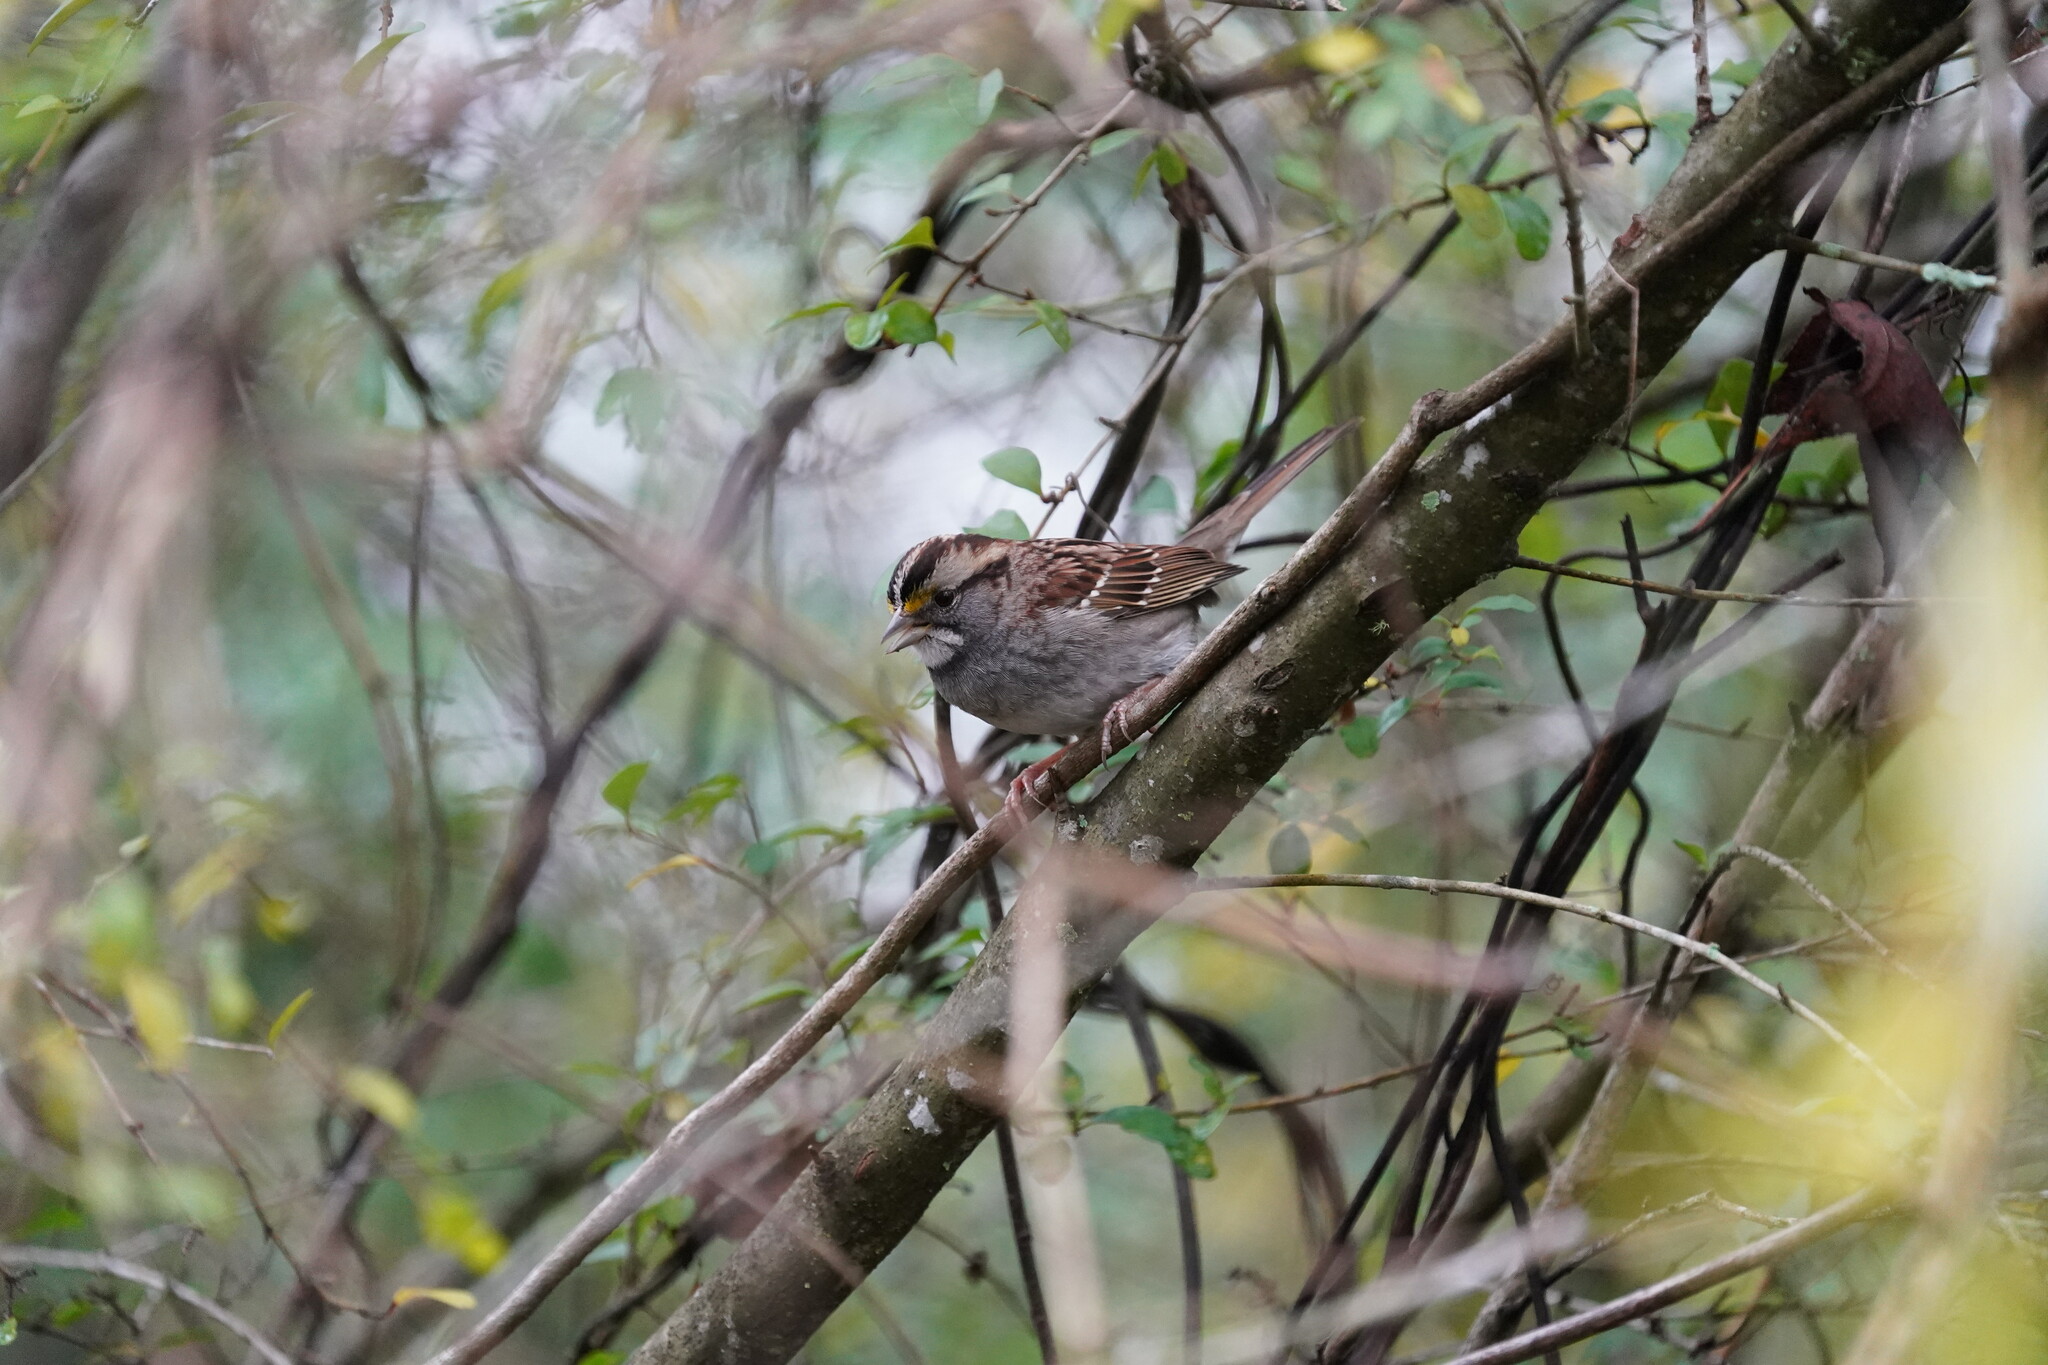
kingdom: Animalia
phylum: Chordata
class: Aves
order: Passeriformes
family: Passerellidae
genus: Zonotrichia
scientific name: Zonotrichia albicollis
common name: White-throated sparrow
